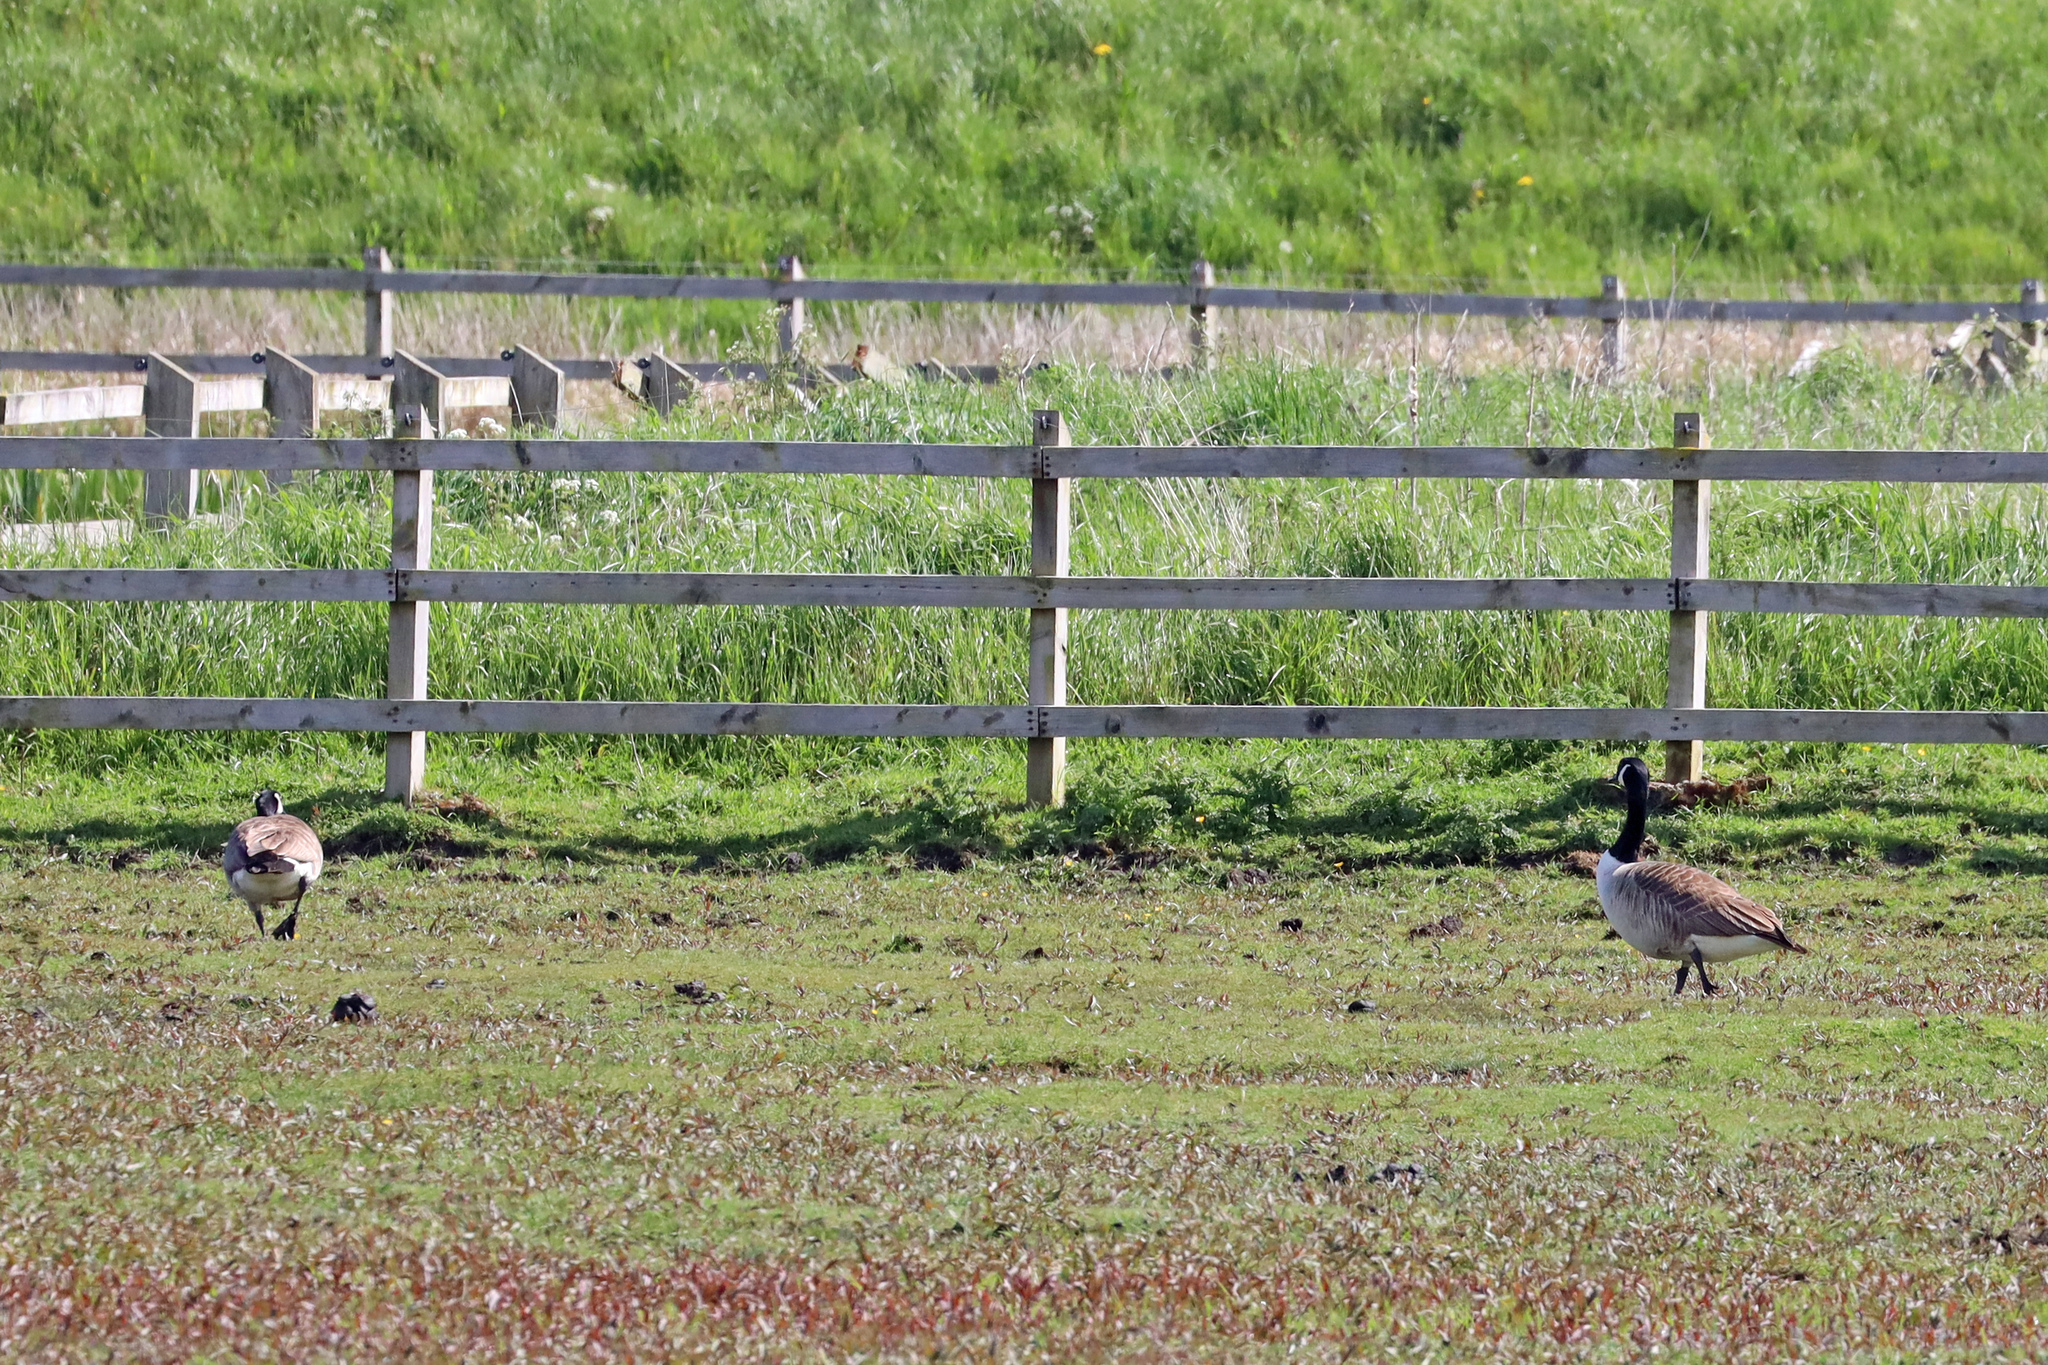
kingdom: Animalia
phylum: Chordata
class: Aves
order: Anseriformes
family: Anatidae
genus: Branta
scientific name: Branta canadensis
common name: Canada goose
